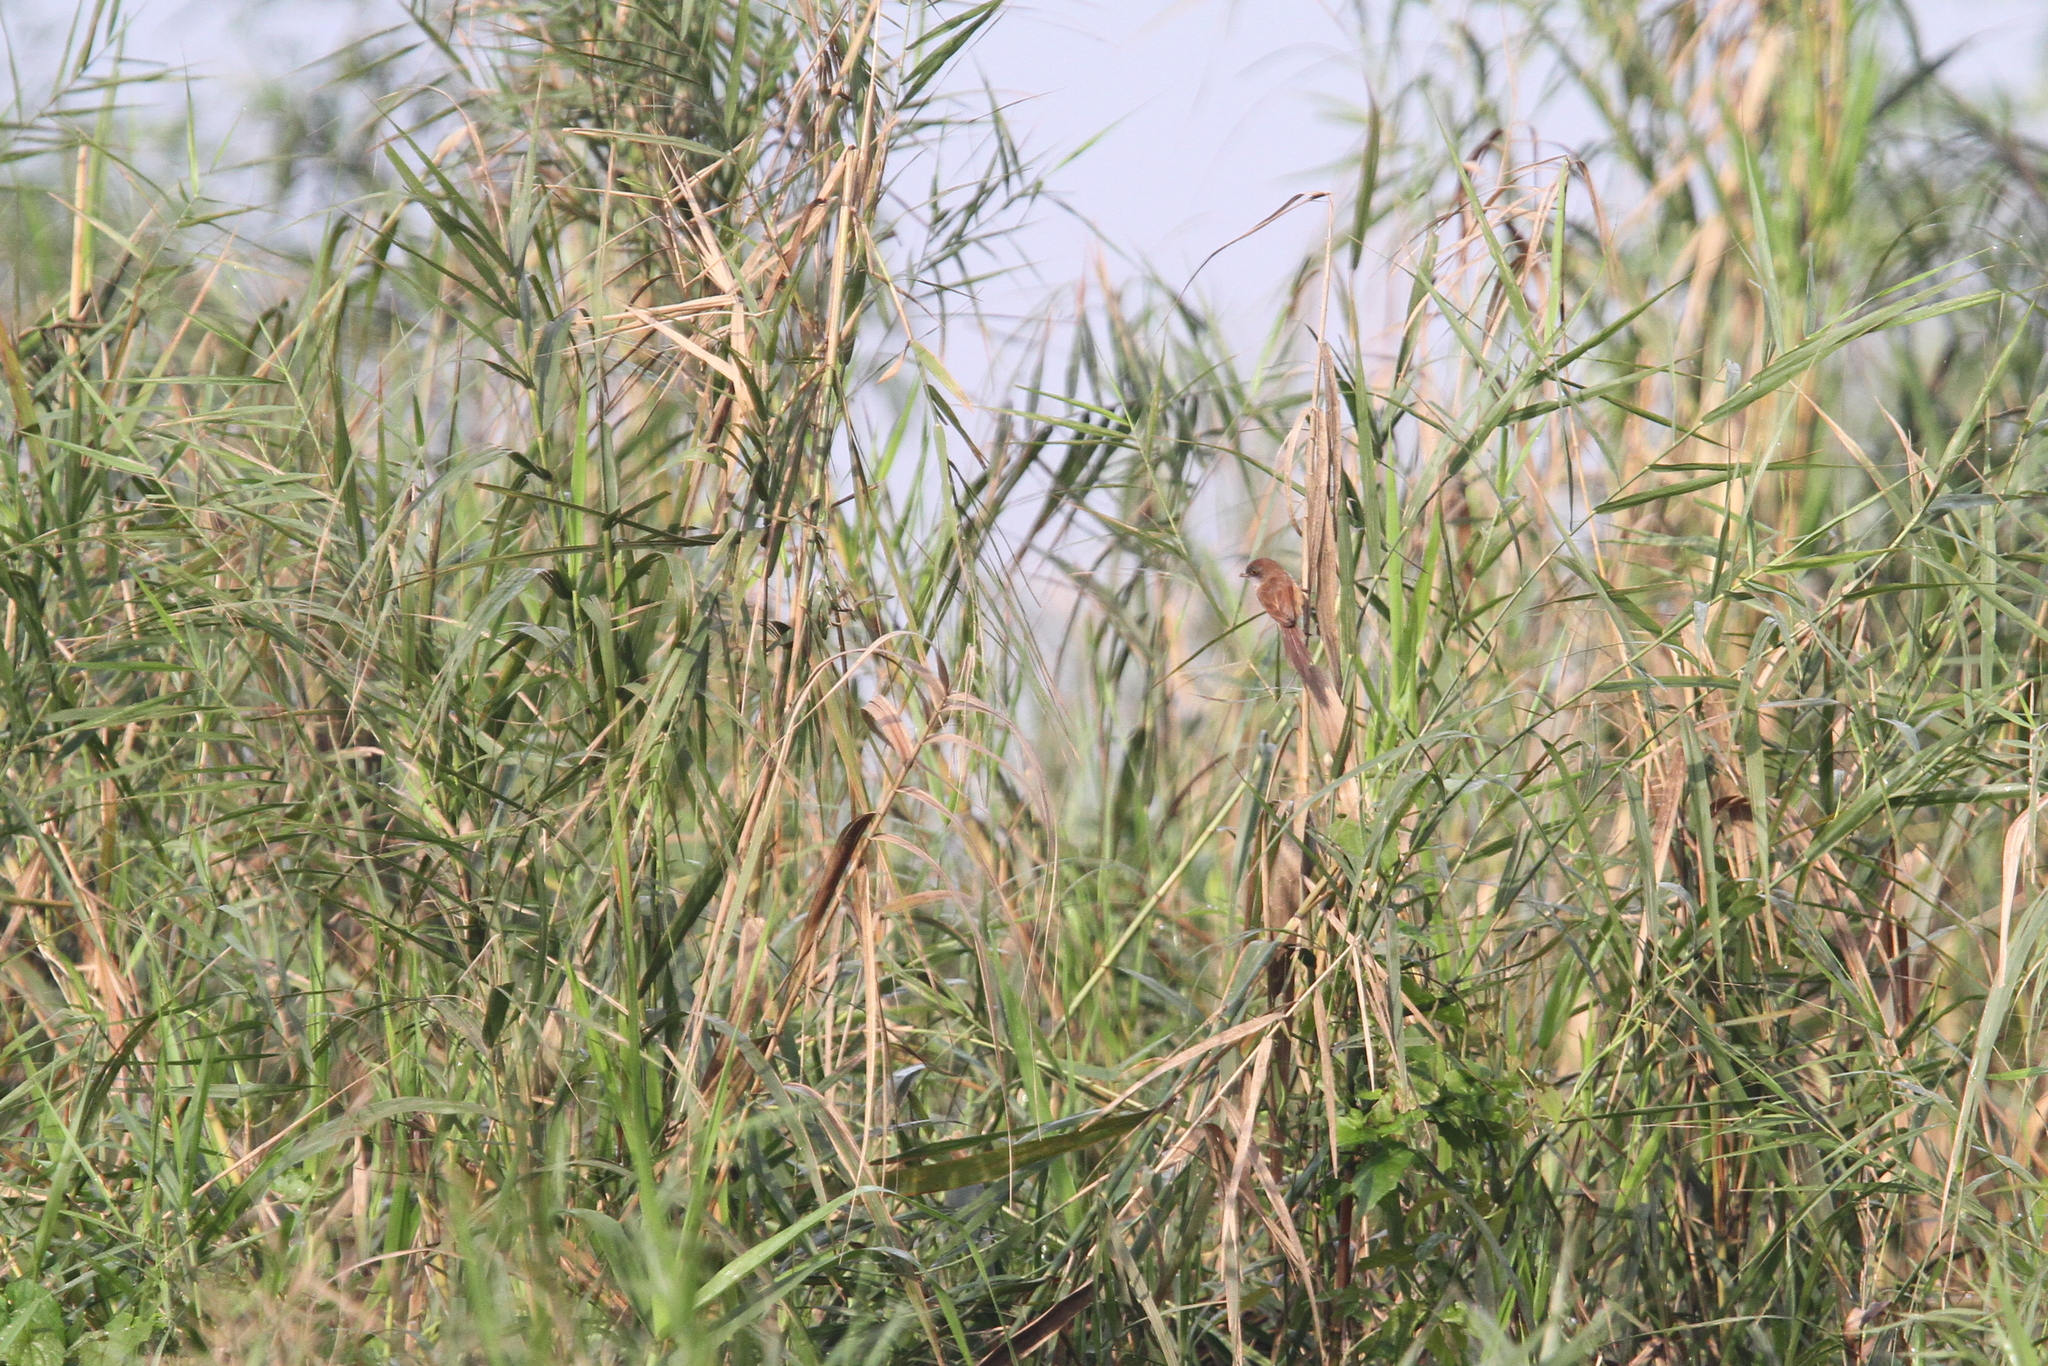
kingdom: Animalia
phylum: Chordata
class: Aves
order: Passeriformes
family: Sylviidae
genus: Chrysomma
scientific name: Chrysomma altirostre
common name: Jerdon's babbler
